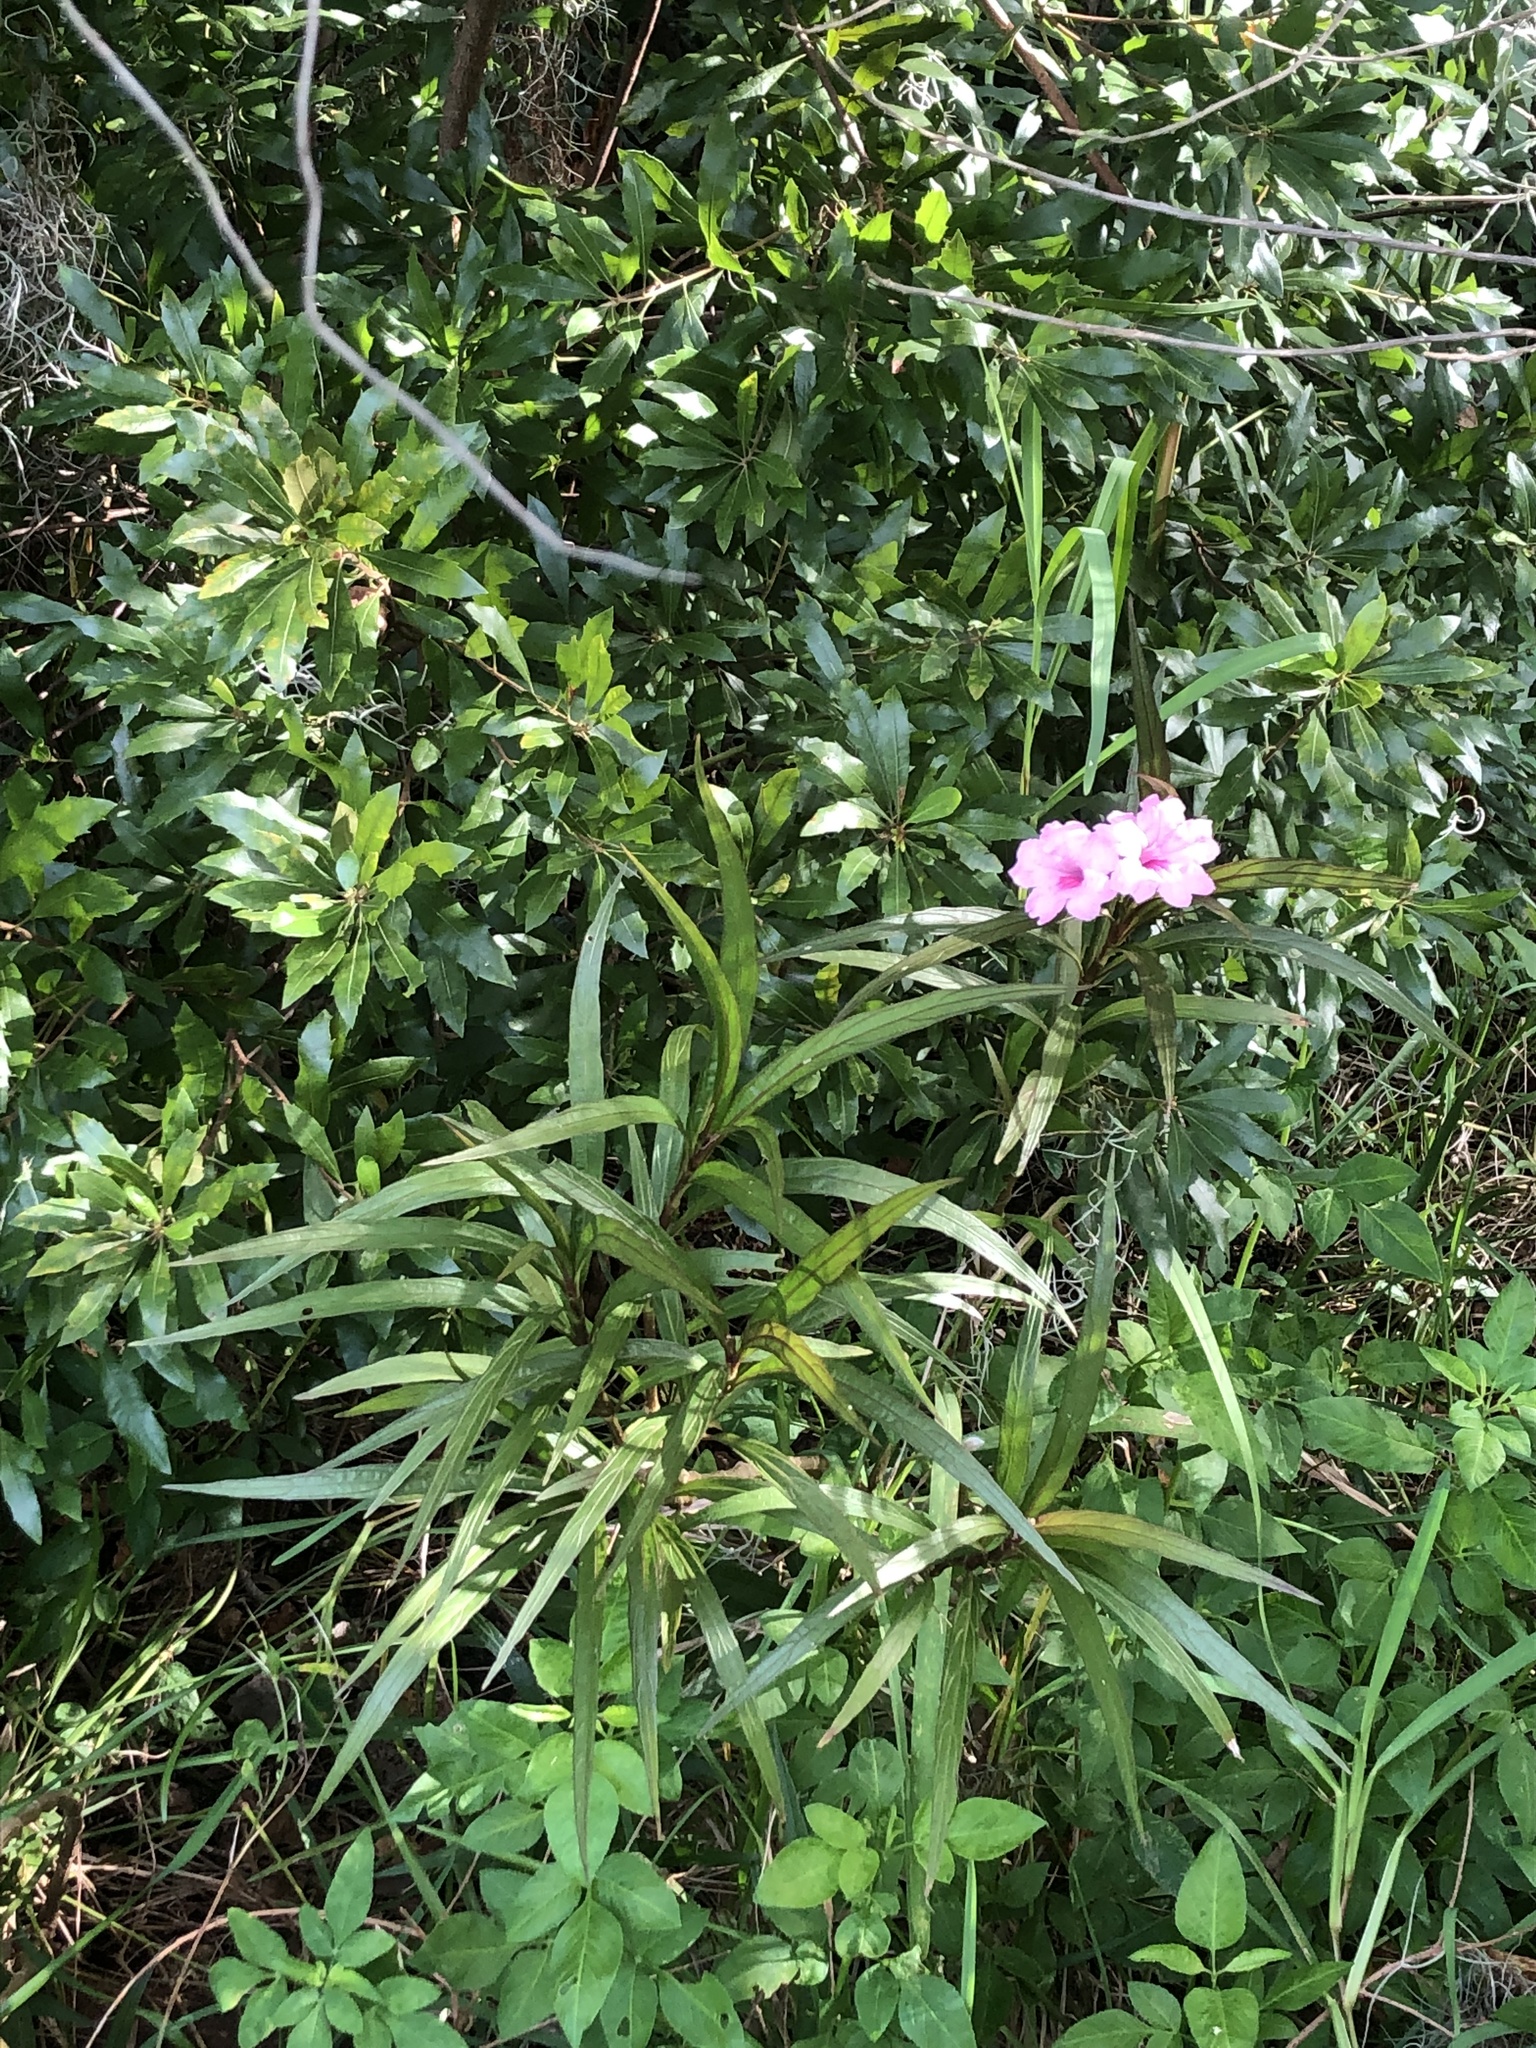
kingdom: Plantae
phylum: Tracheophyta
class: Magnoliopsida
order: Lamiales
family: Acanthaceae
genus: Ruellia
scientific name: Ruellia simplex
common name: Softseed wild petunia
